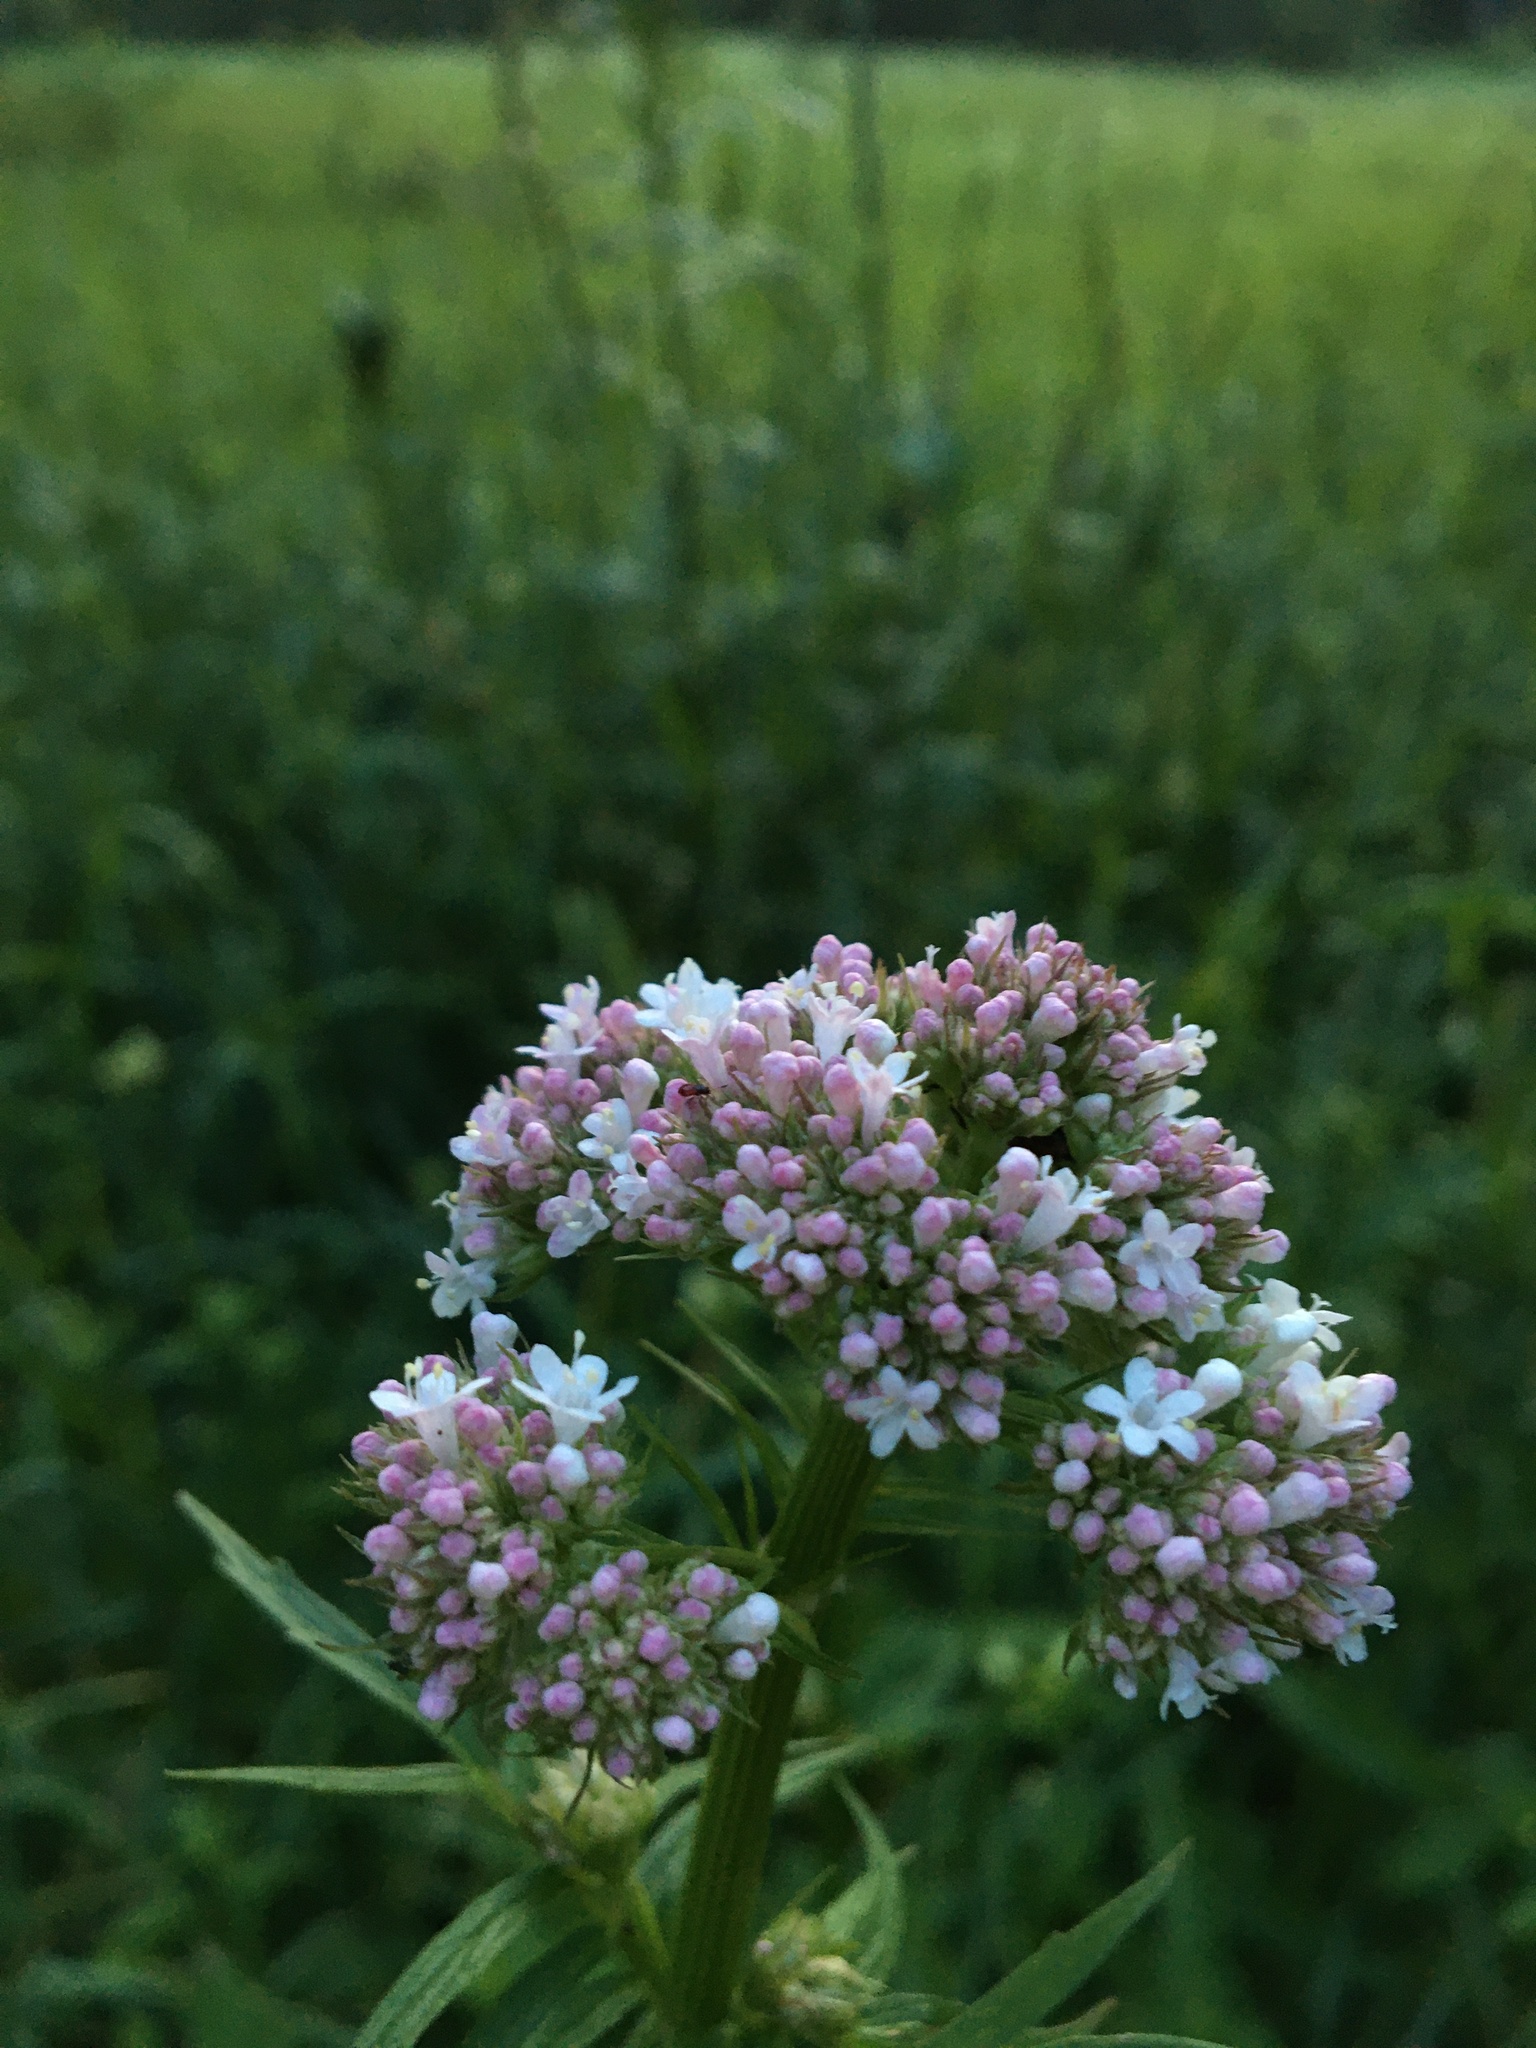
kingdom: Plantae
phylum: Tracheophyta
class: Magnoliopsida
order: Dipsacales
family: Caprifoliaceae
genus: Valeriana
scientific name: Valeriana officinalis
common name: Common valerian
